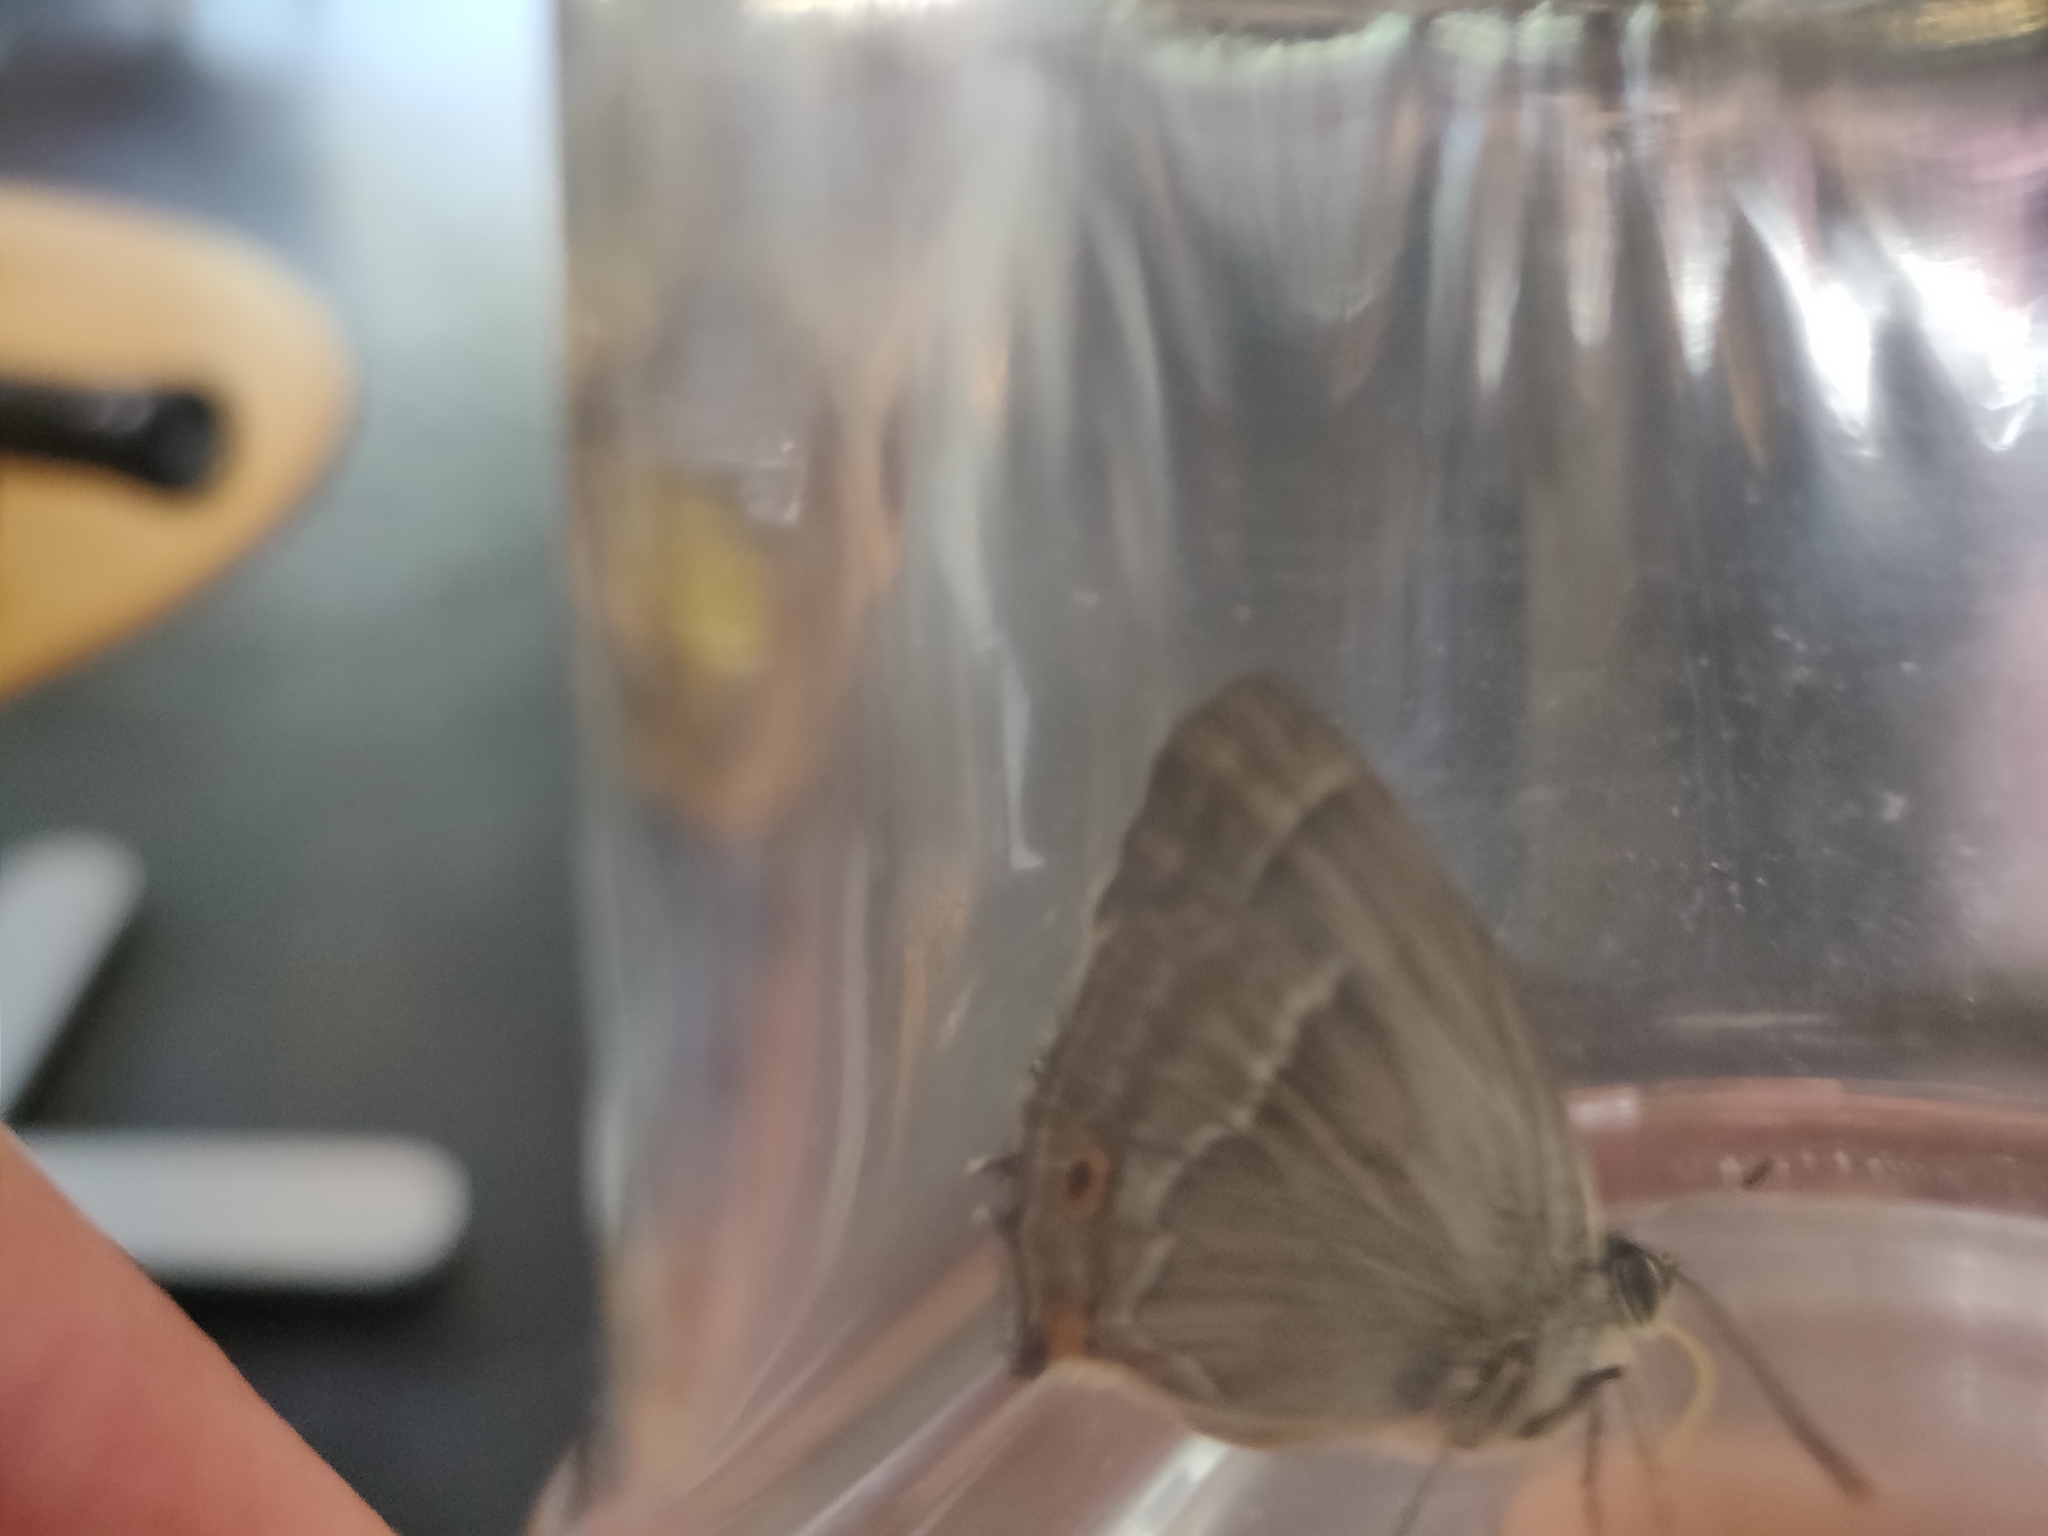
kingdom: Animalia
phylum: Arthropoda
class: Insecta
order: Lepidoptera
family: Lycaenidae
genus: Quercusia
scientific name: Quercusia quercus
